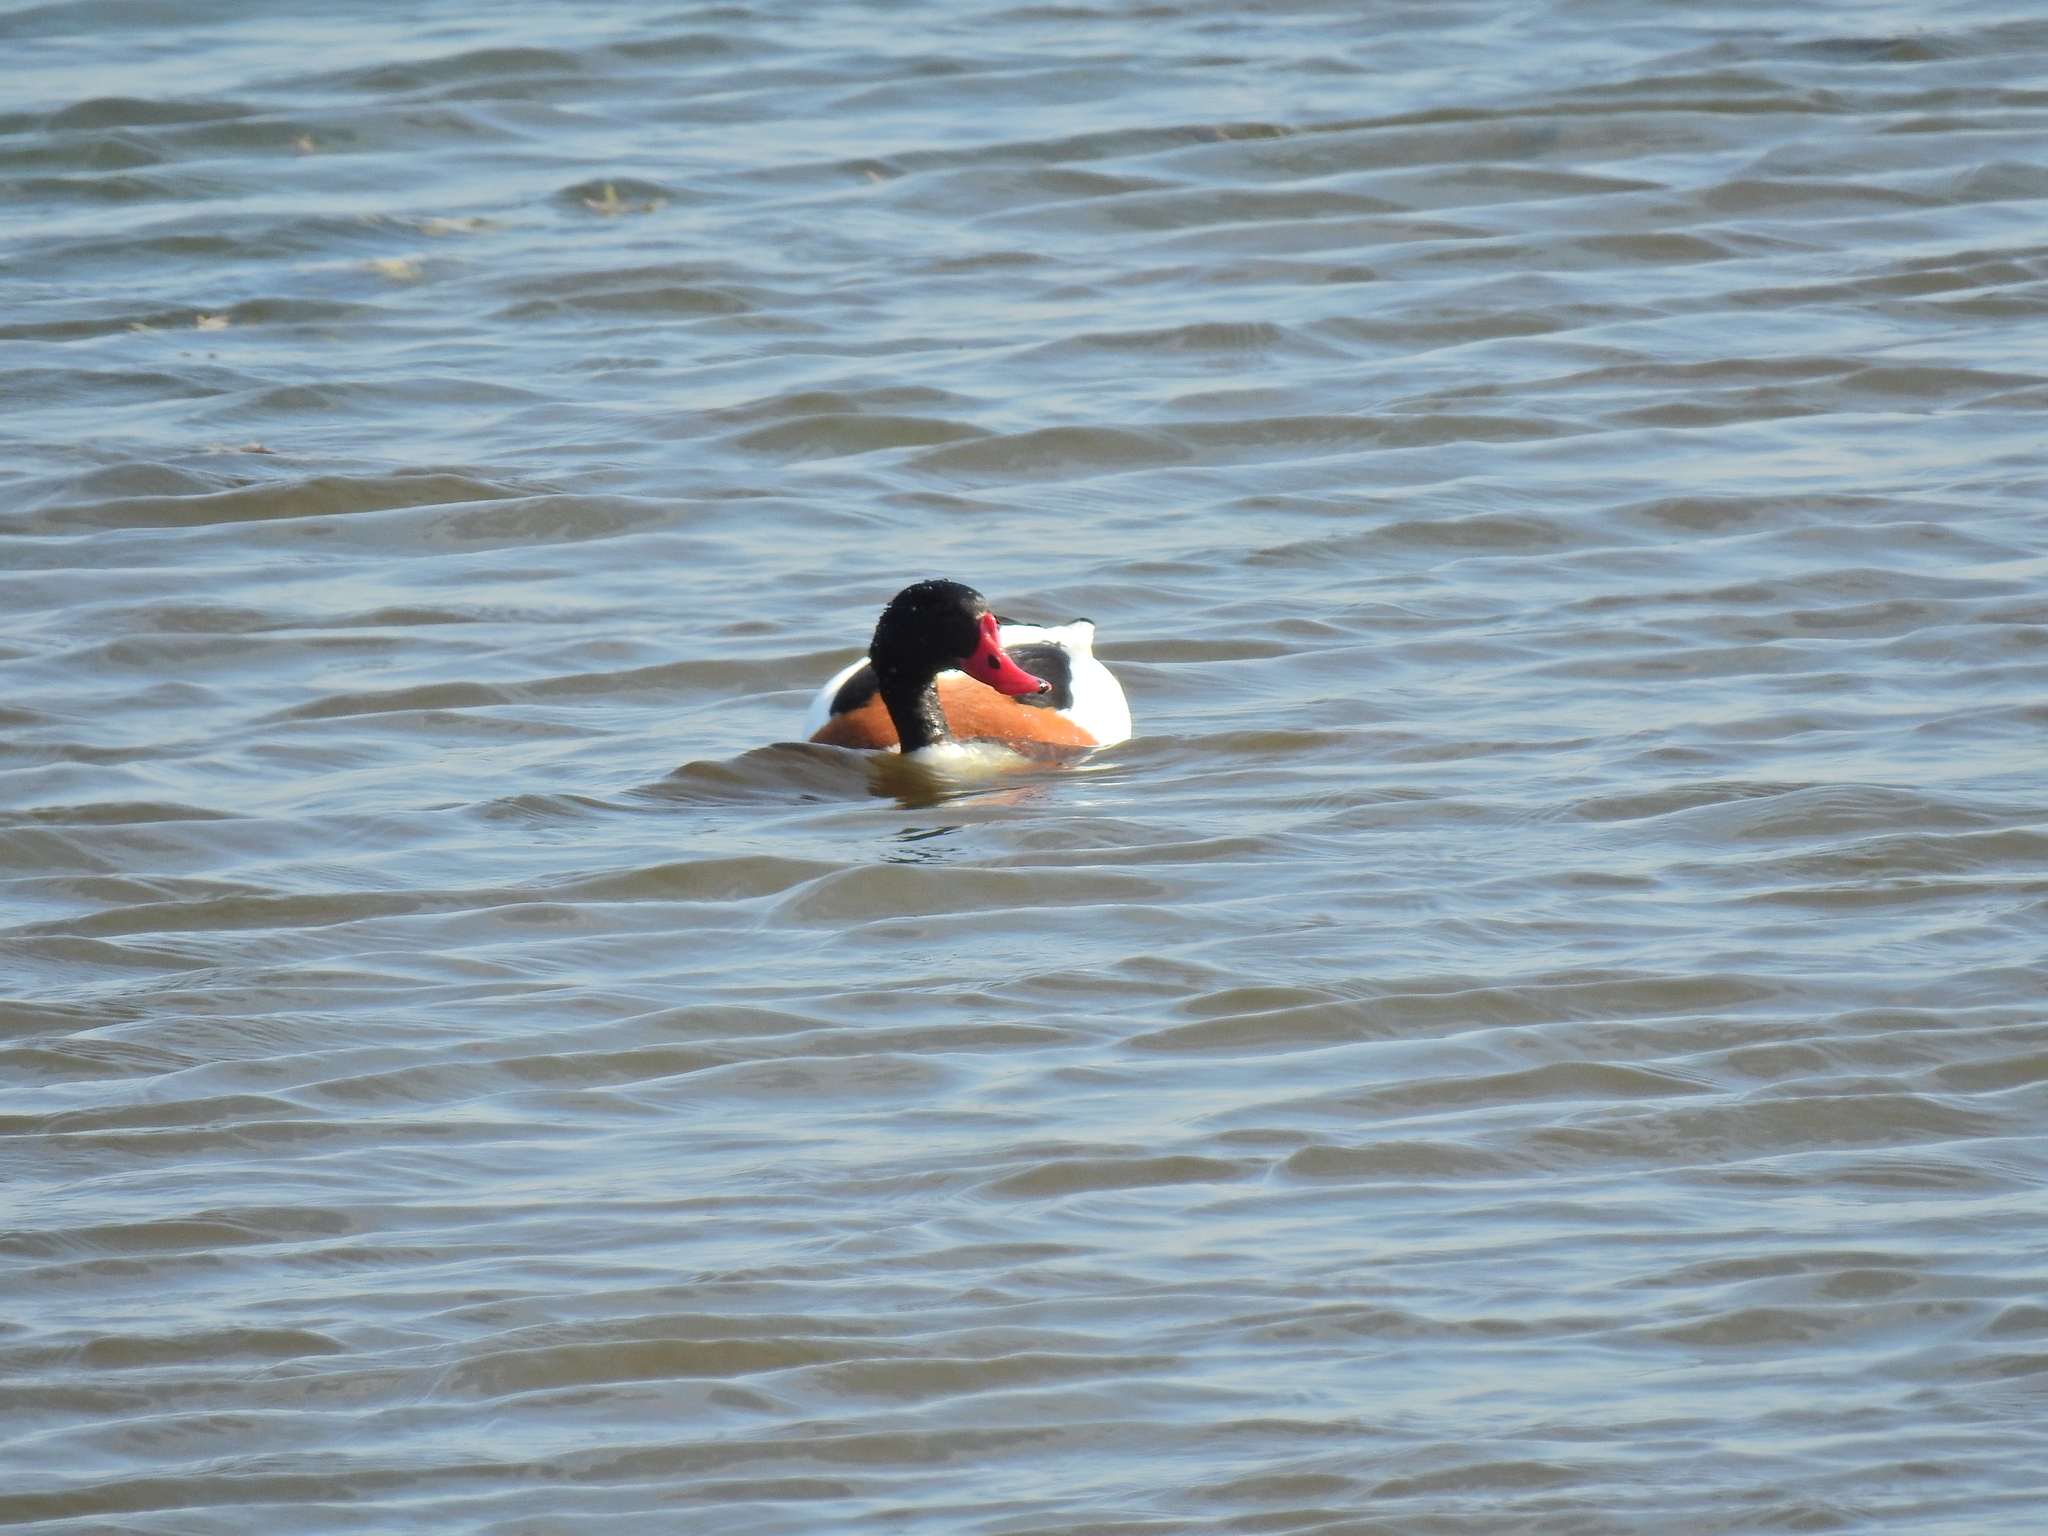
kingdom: Animalia
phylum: Chordata
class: Aves
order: Anseriformes
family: Anatidae
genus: Tadorna
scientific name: Tadorna tadorna
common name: Common shelduck
